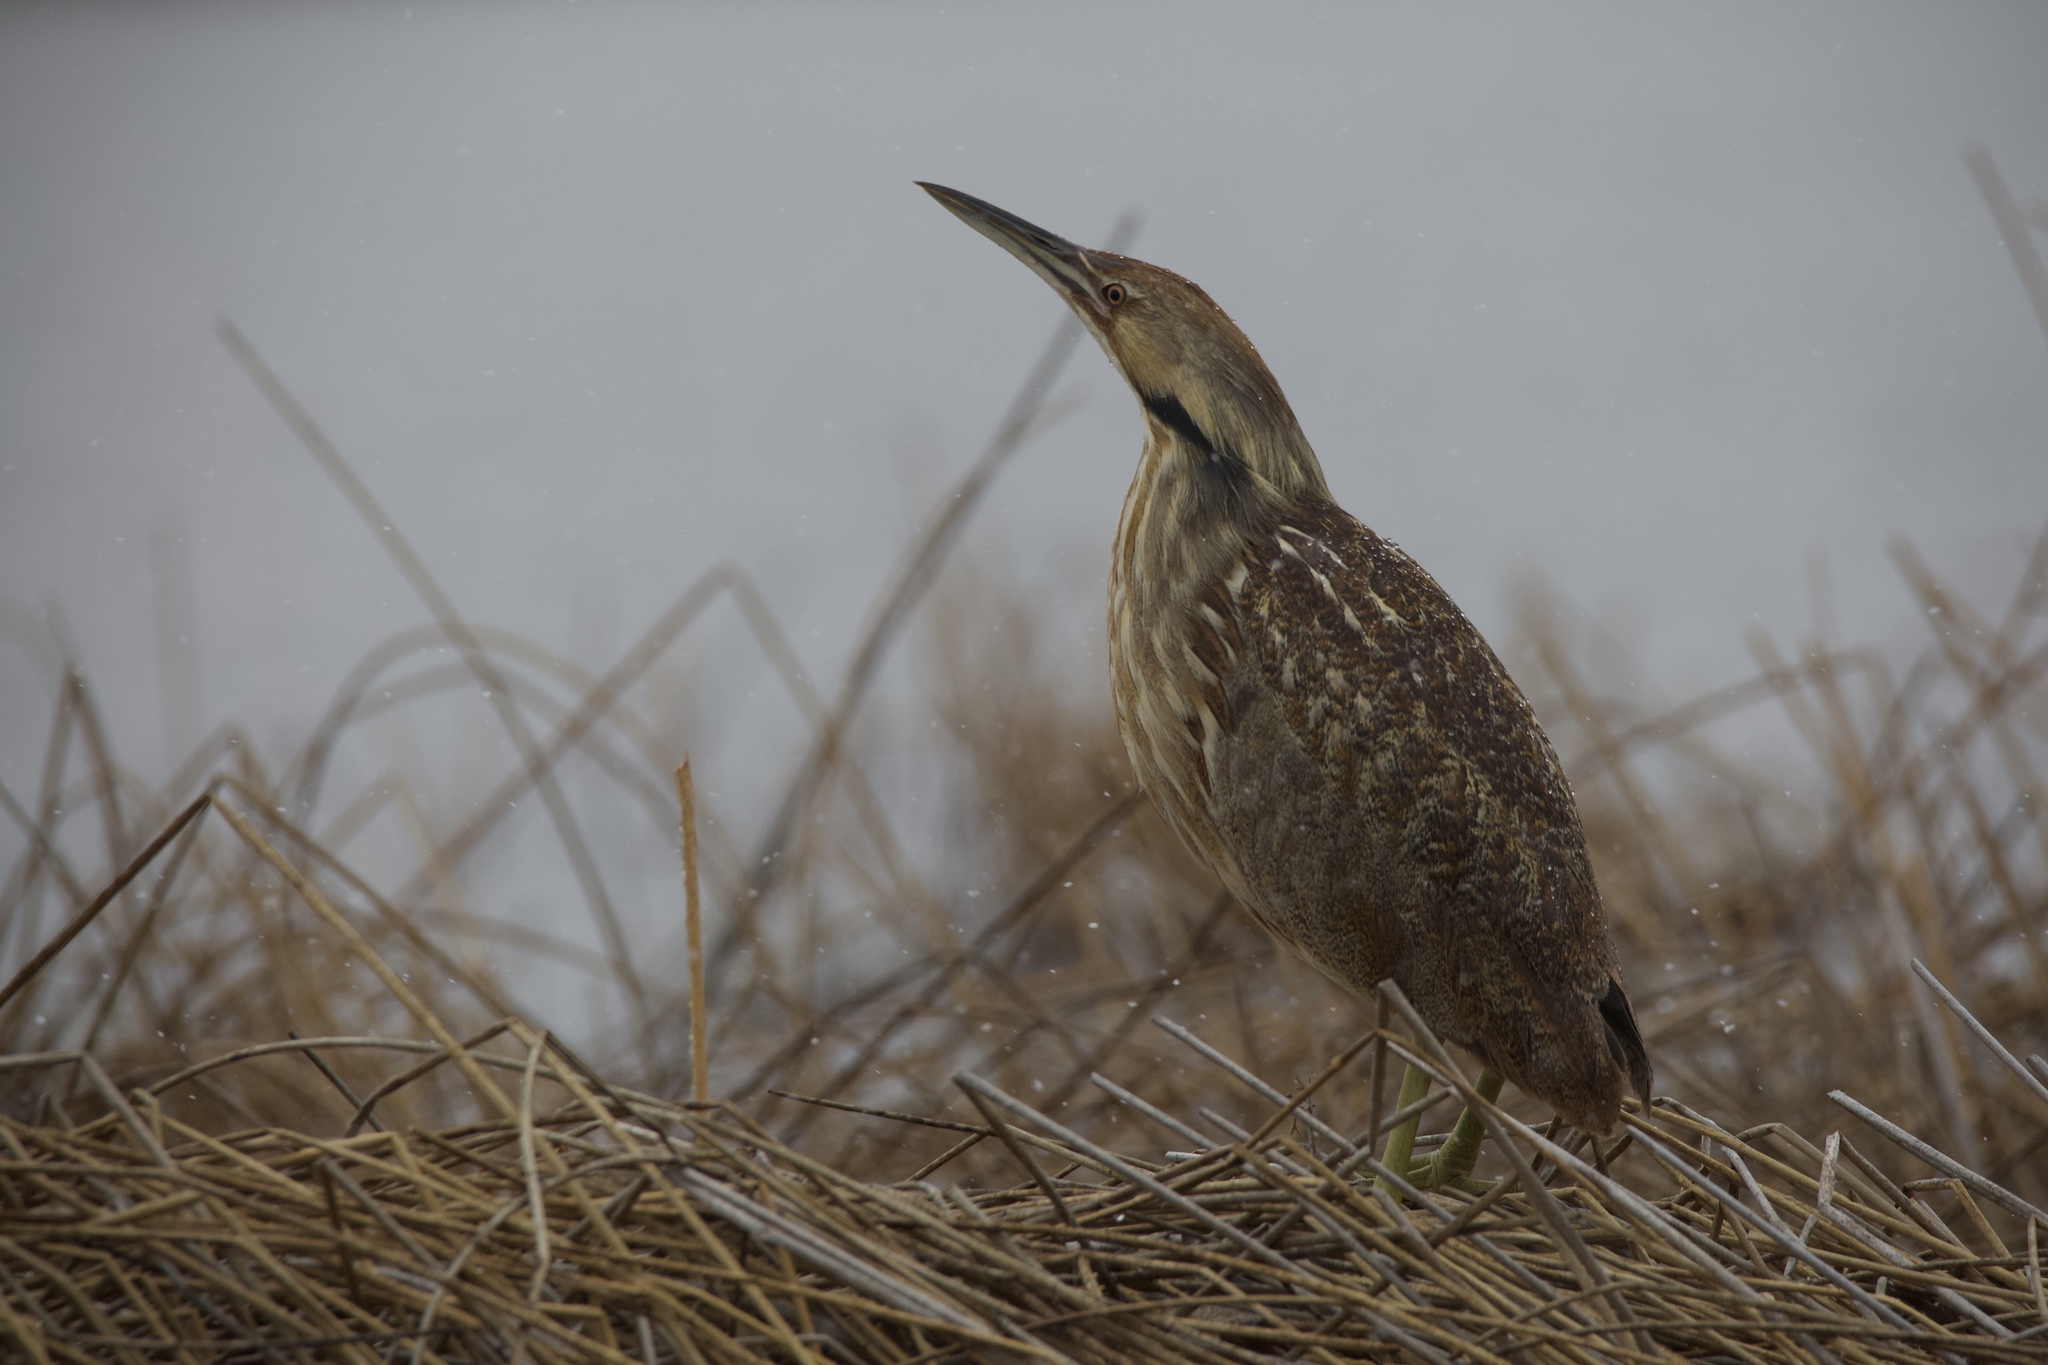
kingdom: Animalia
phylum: Chordata
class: Aves
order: Pelecaniformes
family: Ardeidae
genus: Botaurus
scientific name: Botaurus lentiginosus
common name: American bittern
